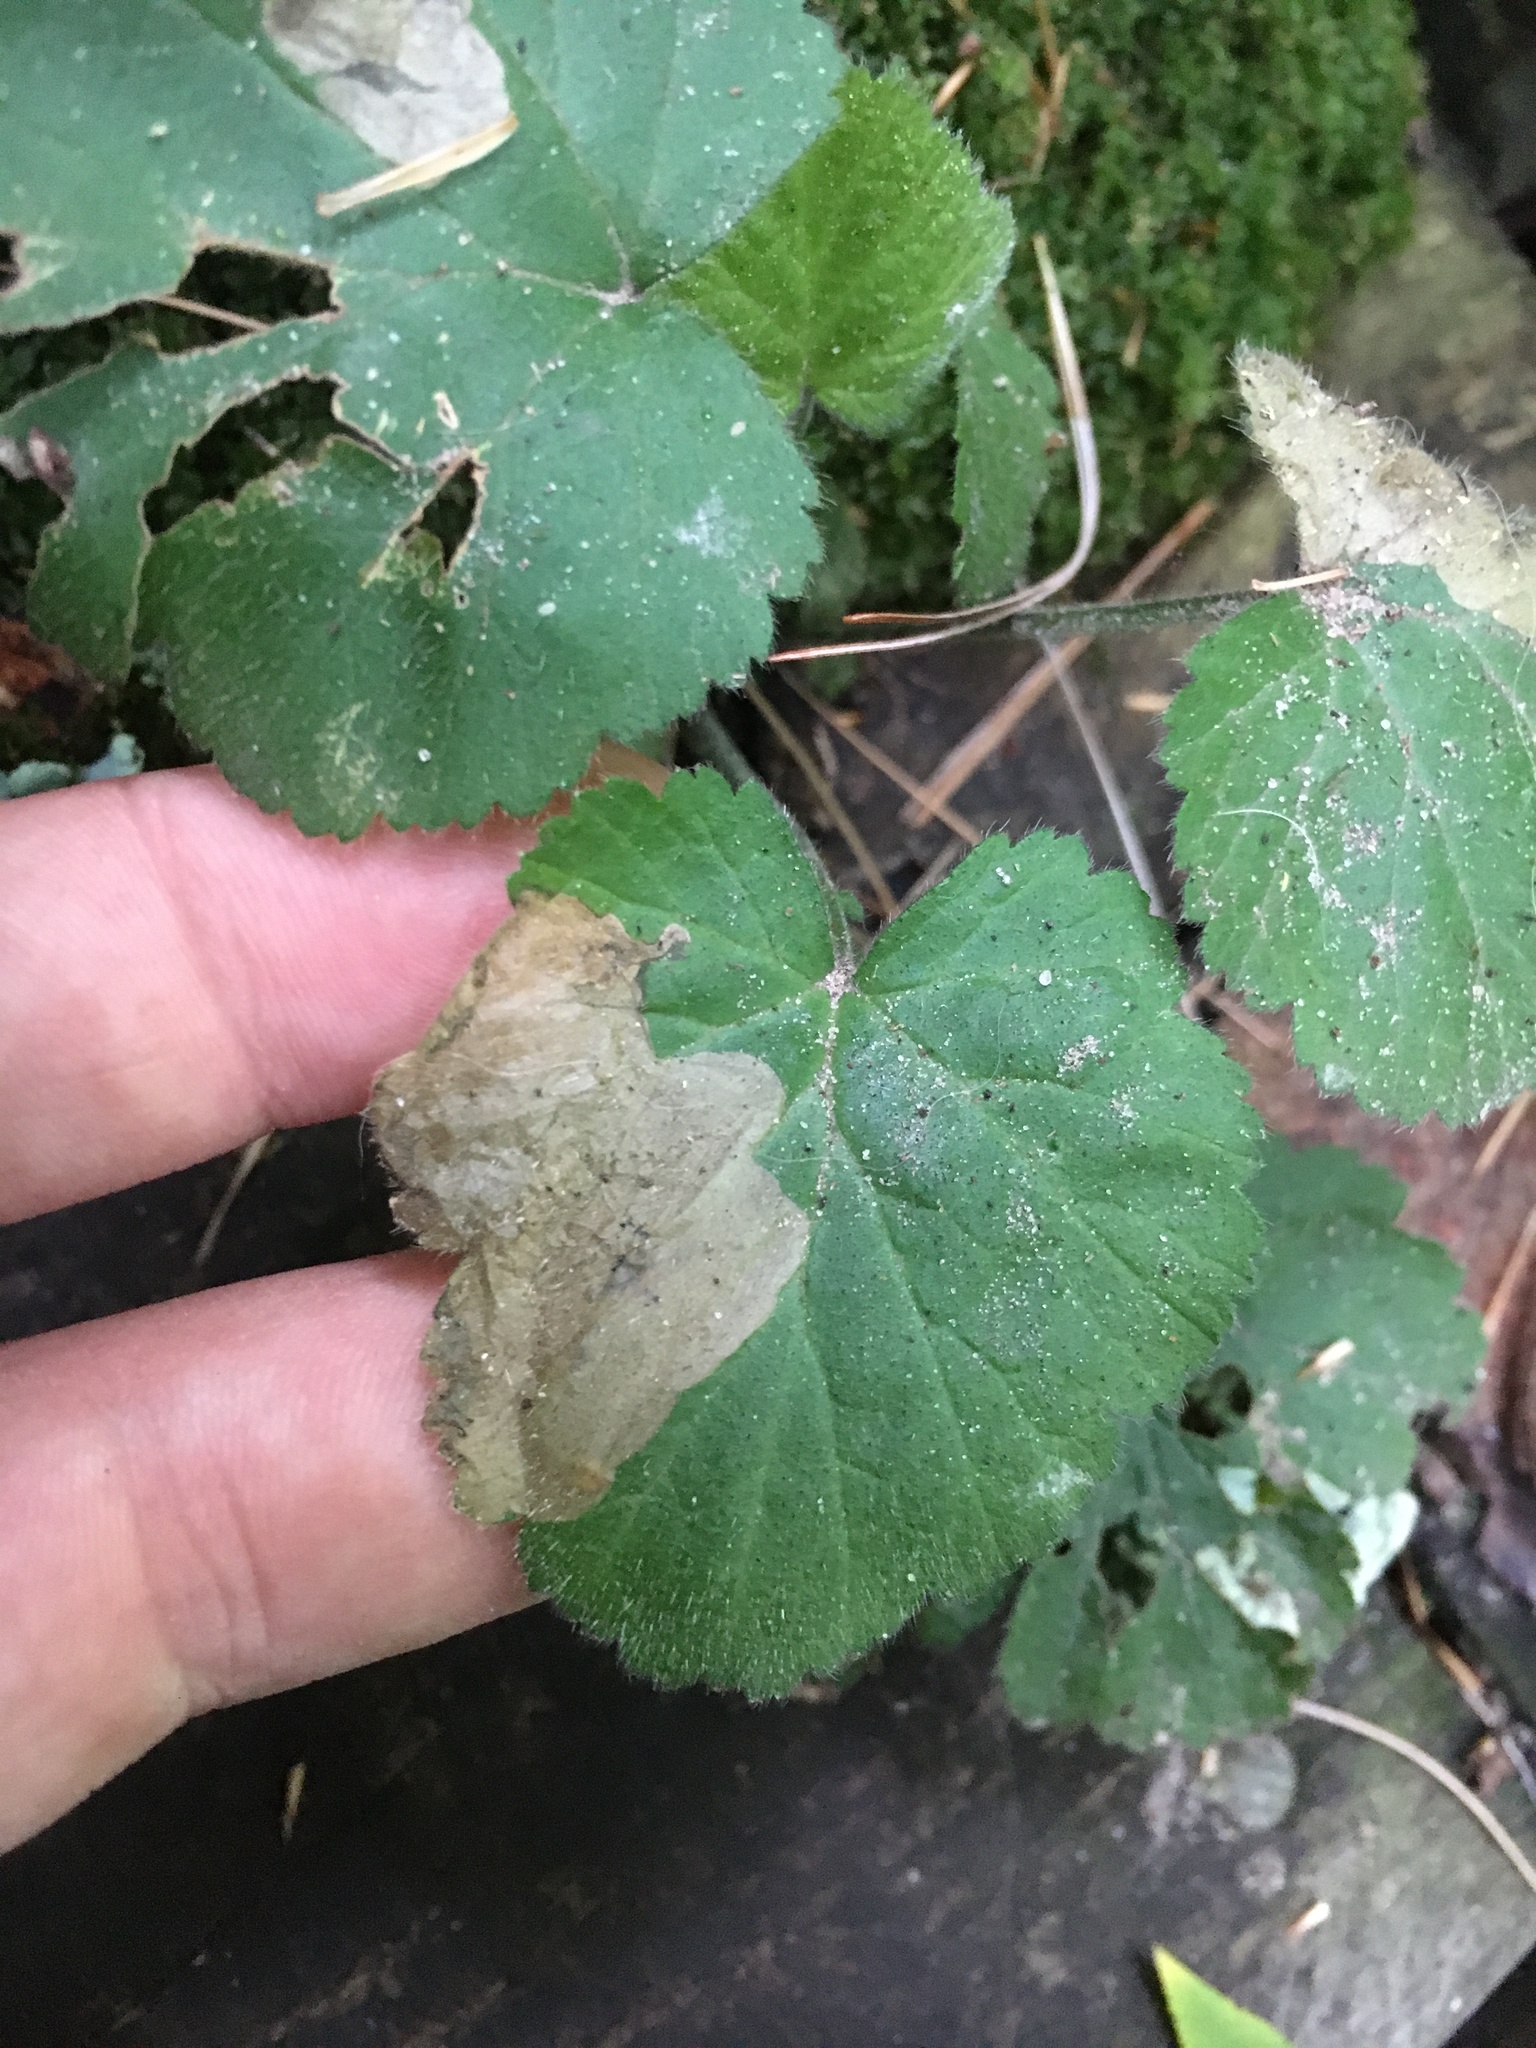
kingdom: Animalia
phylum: Arthropoda
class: Insecta
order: Hymenoptera
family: Tenthredinidae
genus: Metallus
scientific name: Metallus lanceolatus
